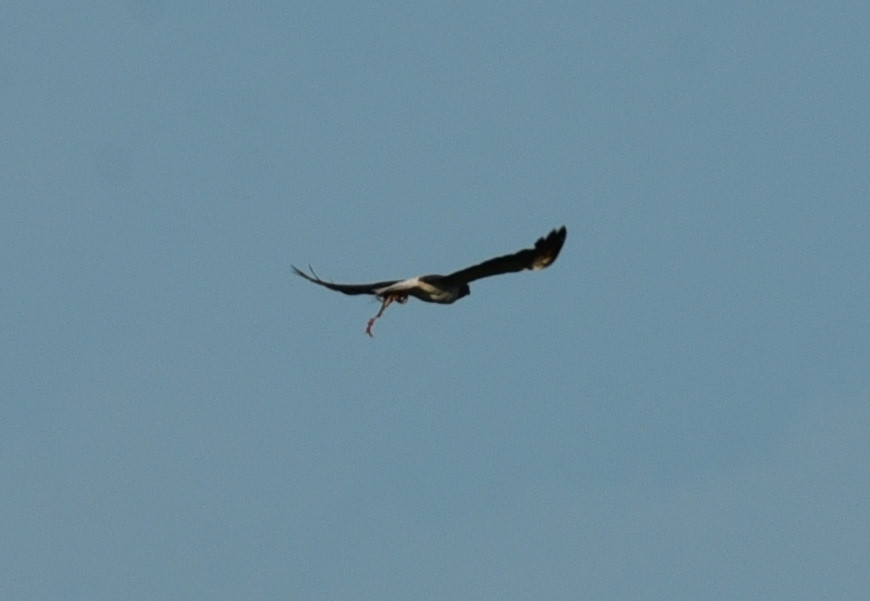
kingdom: Animalia
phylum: Chordata
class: Aves
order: Accipitriformes
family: Accipitridae
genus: Buteo
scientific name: Buteo albicaudatus
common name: White-tailed hawk
